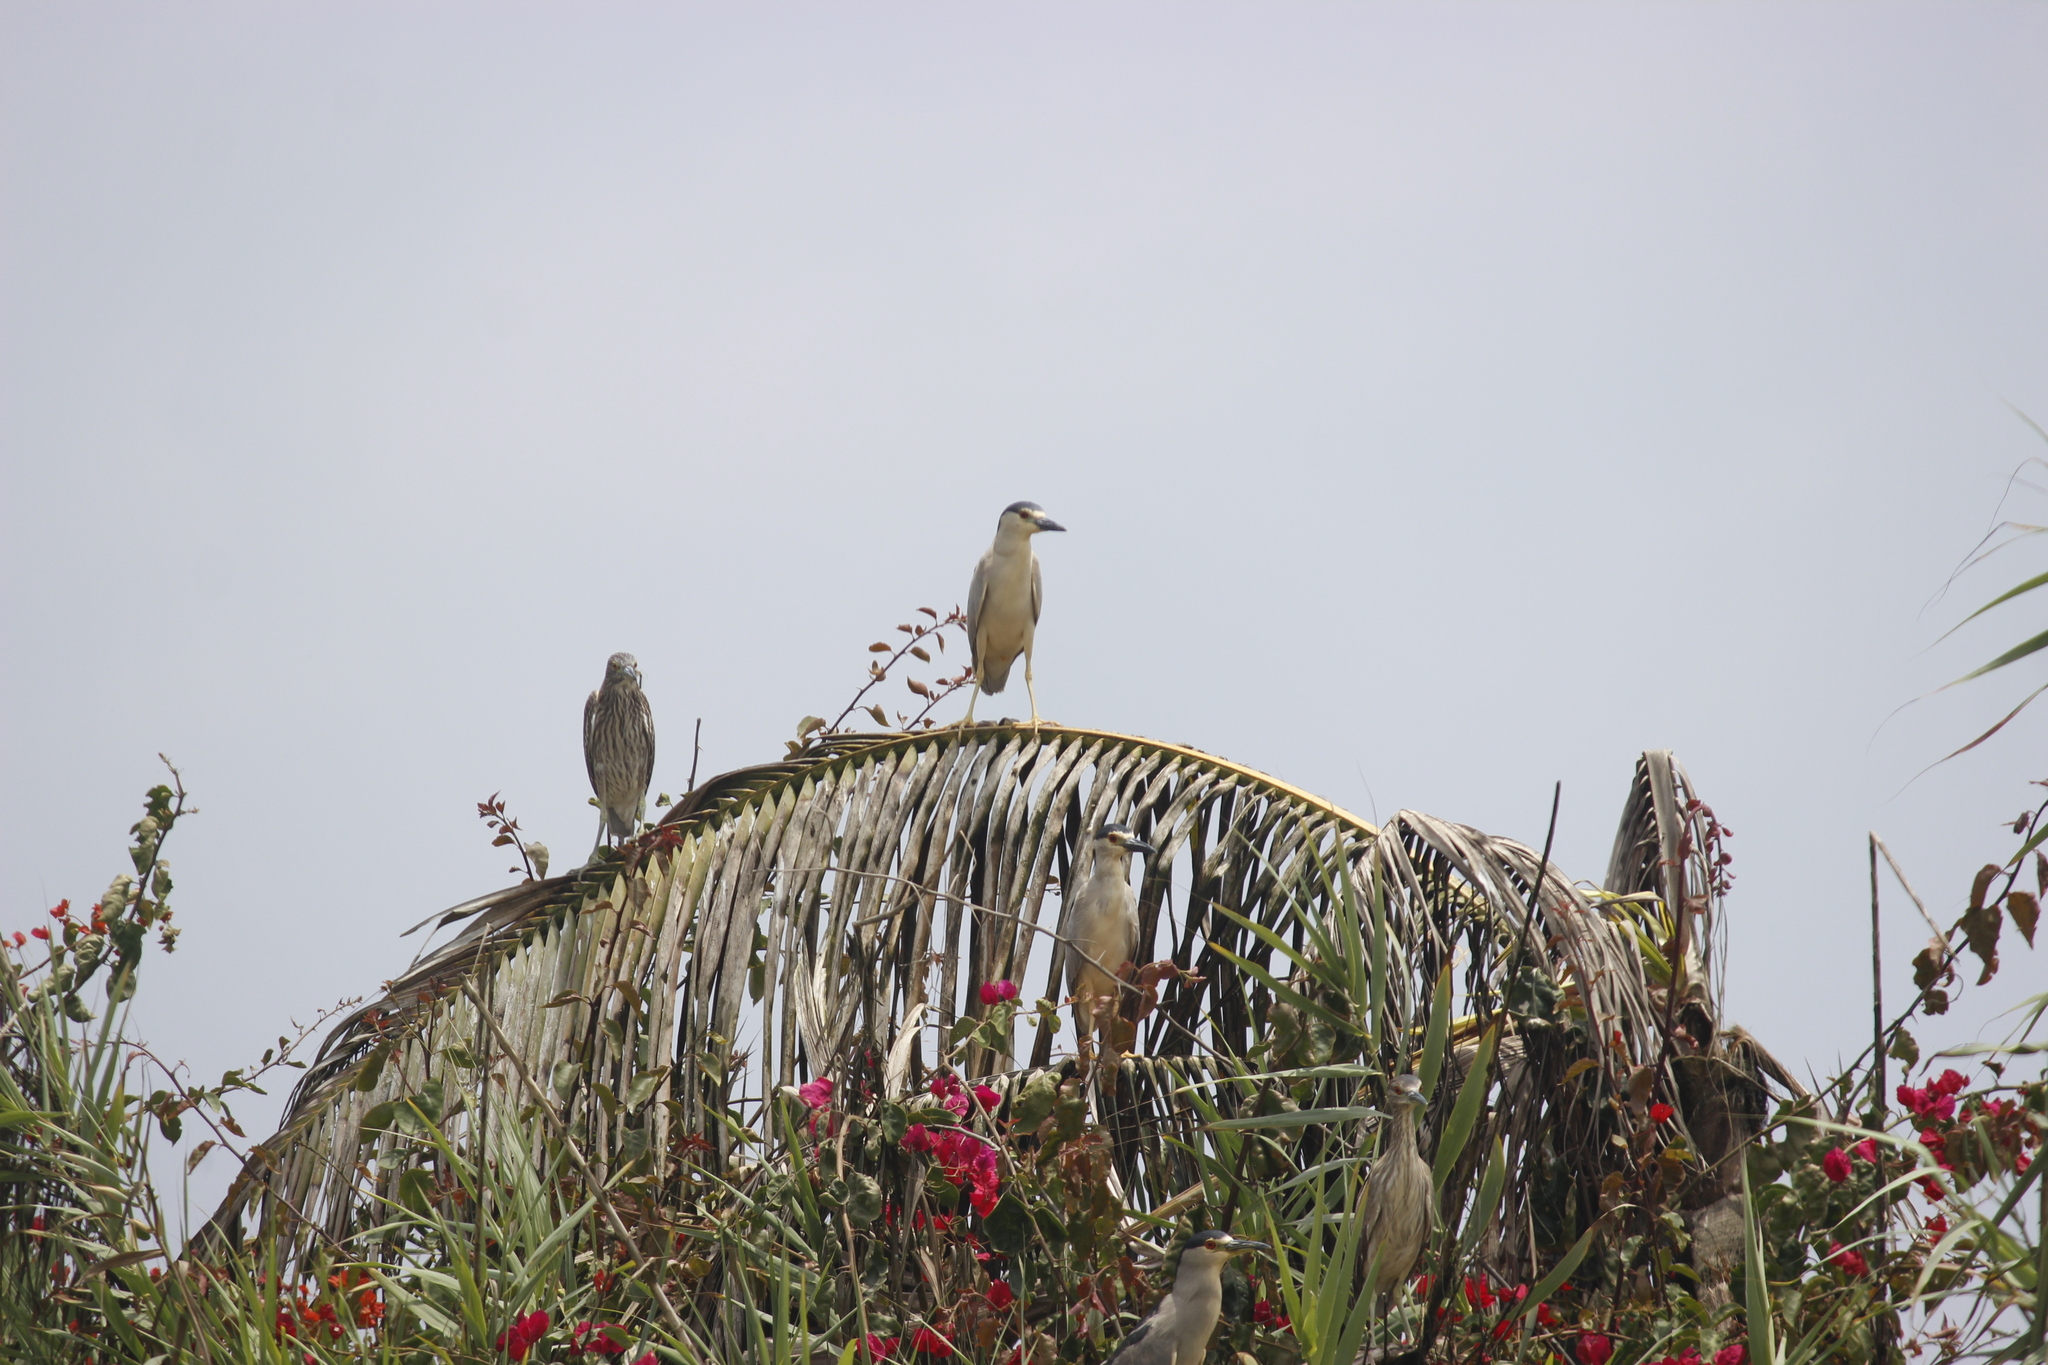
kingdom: Animalia
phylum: Chordata
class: Aves
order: Pelecaniformes
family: Ardeidae
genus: Nycticorax
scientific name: Nycticorax nycticorax
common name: Black-crowned night heron
